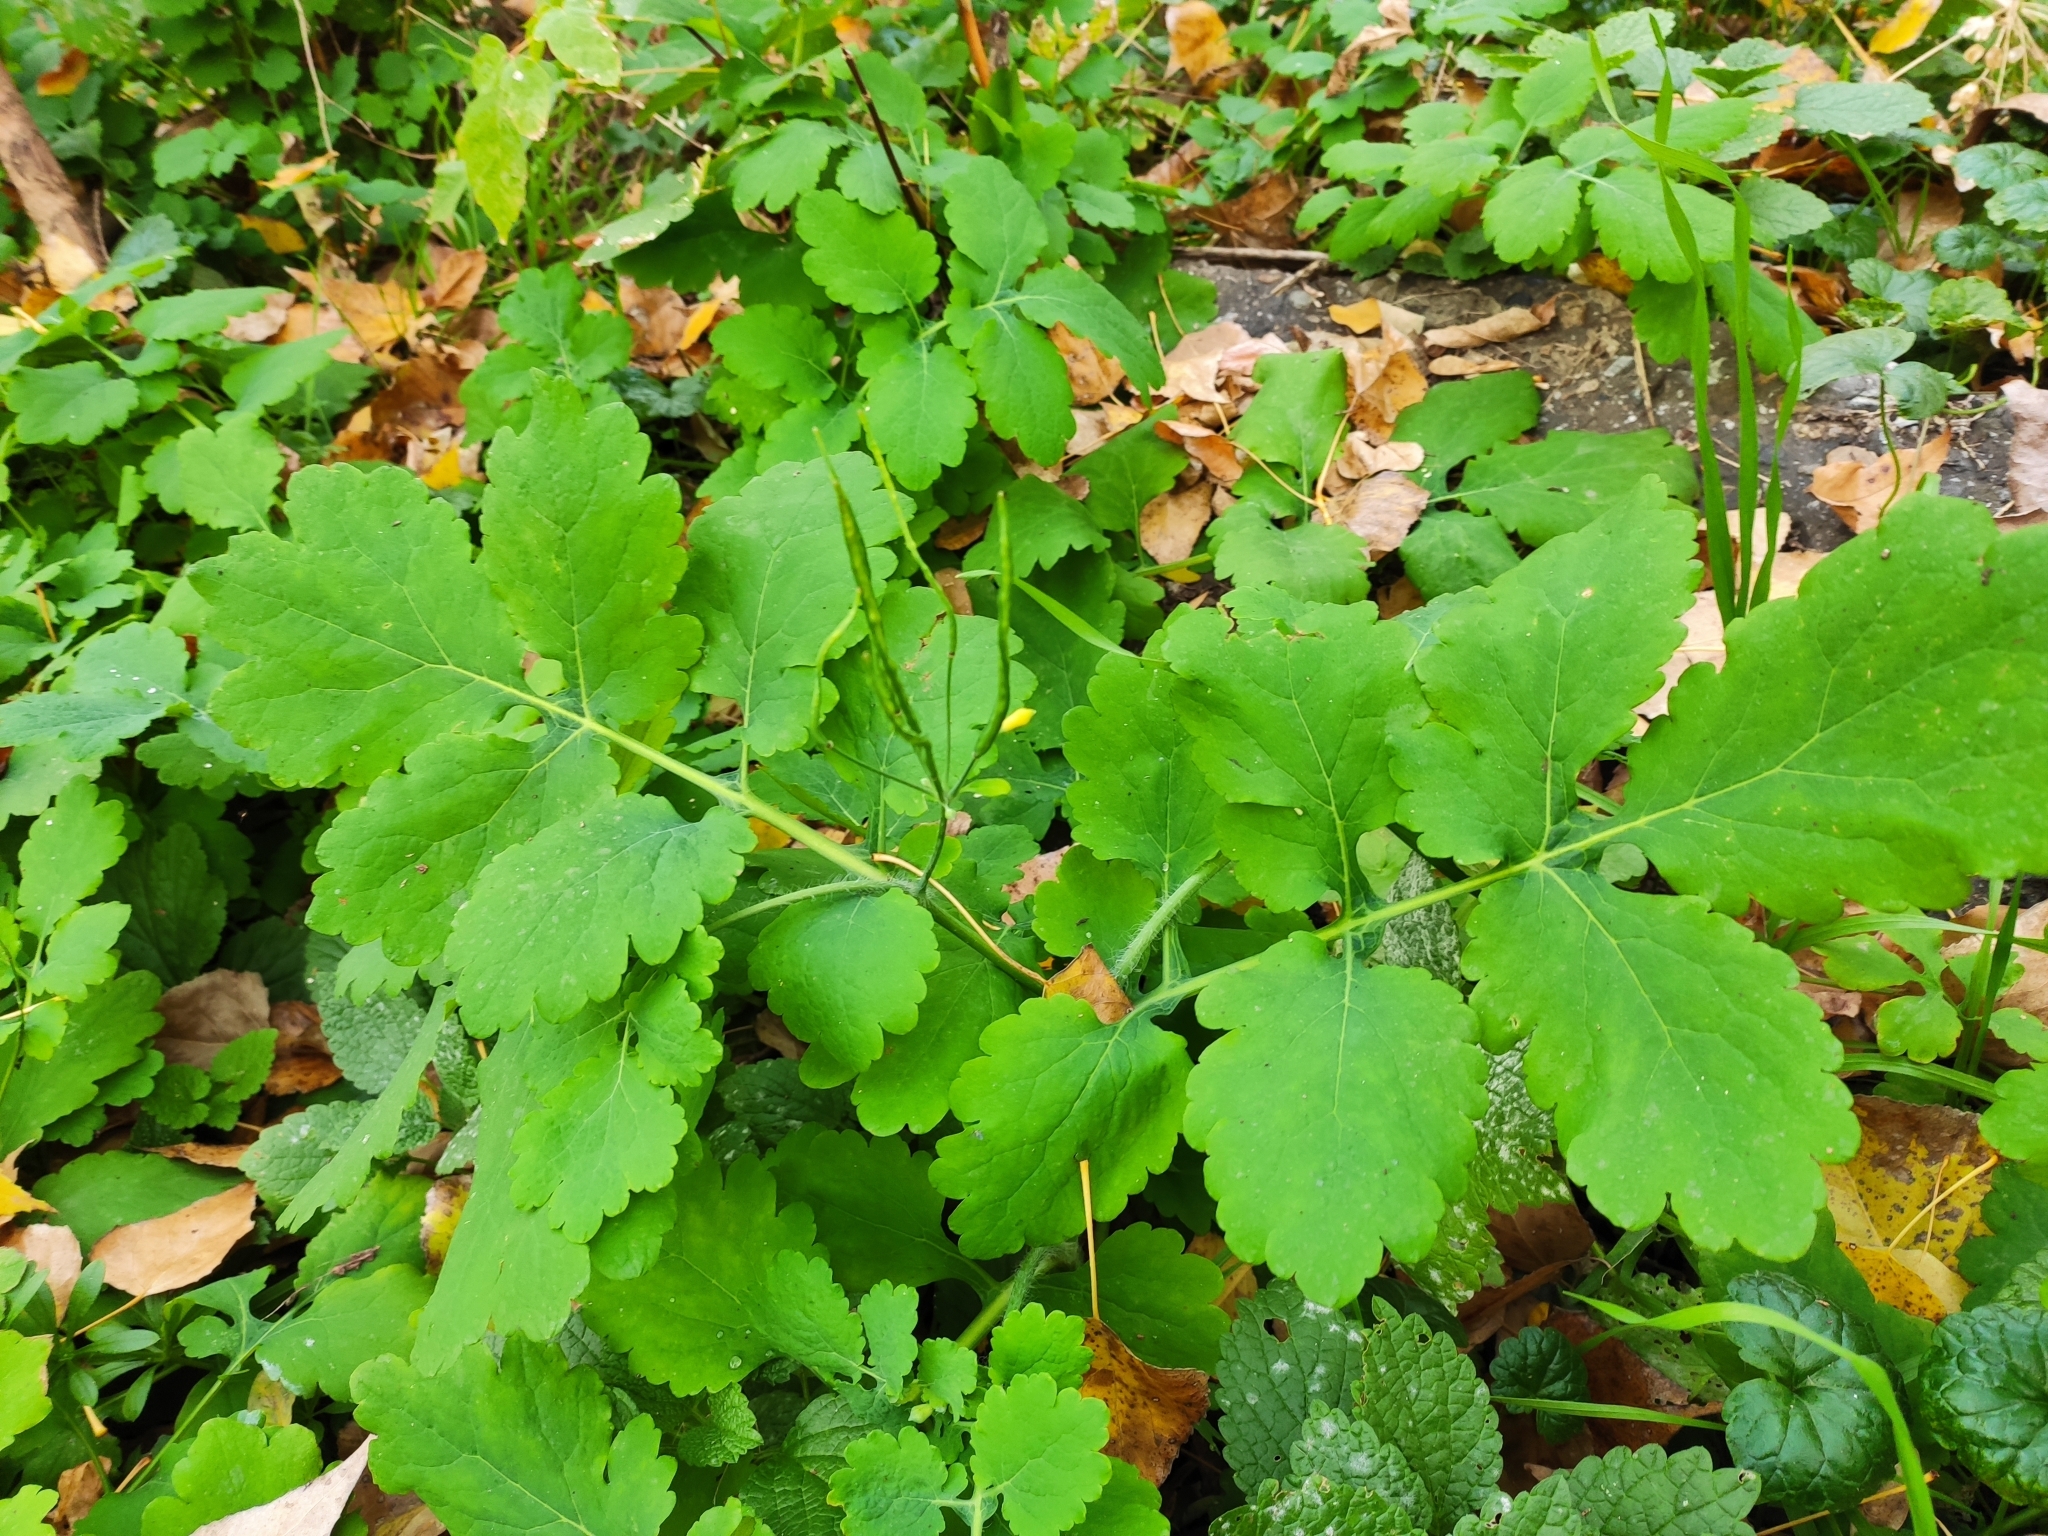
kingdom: Plantae
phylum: Tracheophyta
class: Magnoliopsida
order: Ranunculales
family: Papaveraceae
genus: Chelidonium
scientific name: Chelidonium majus
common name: Greater celandine
